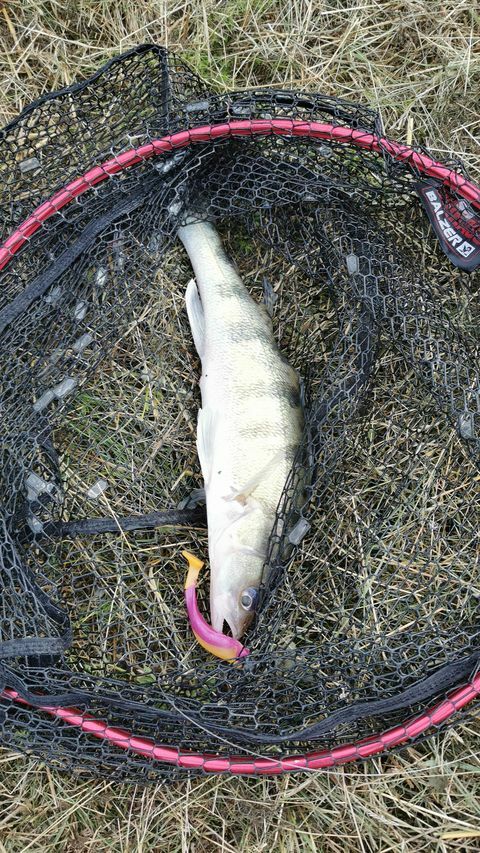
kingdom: Animalia
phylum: Chordata
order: Perciformes
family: Percidae
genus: Sander
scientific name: Sander volgensis
